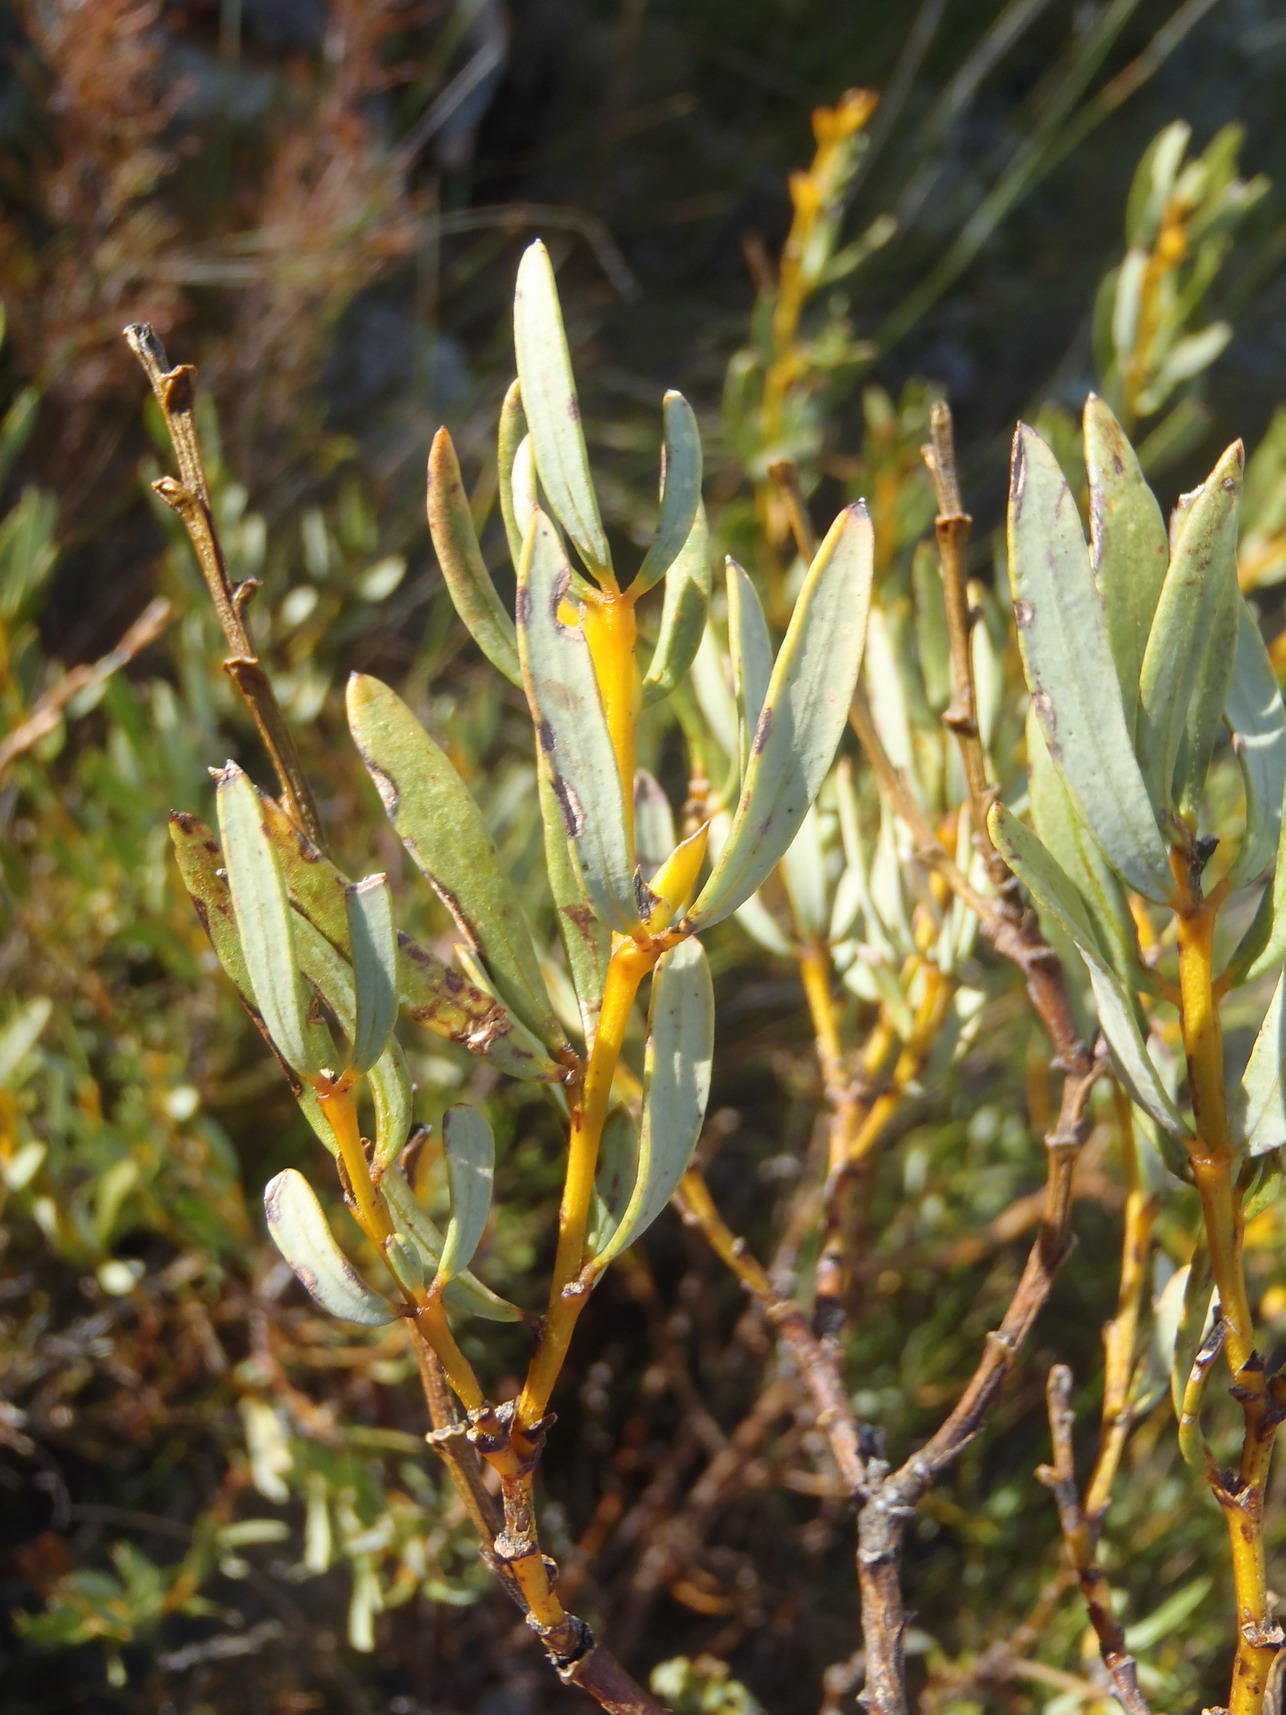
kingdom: Plantae
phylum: Tracheophyta
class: Magnoliopsida
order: Fabales
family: Fabaceae
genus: Cyclopia
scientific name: Cyclopia intermedia
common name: Mountain tea
